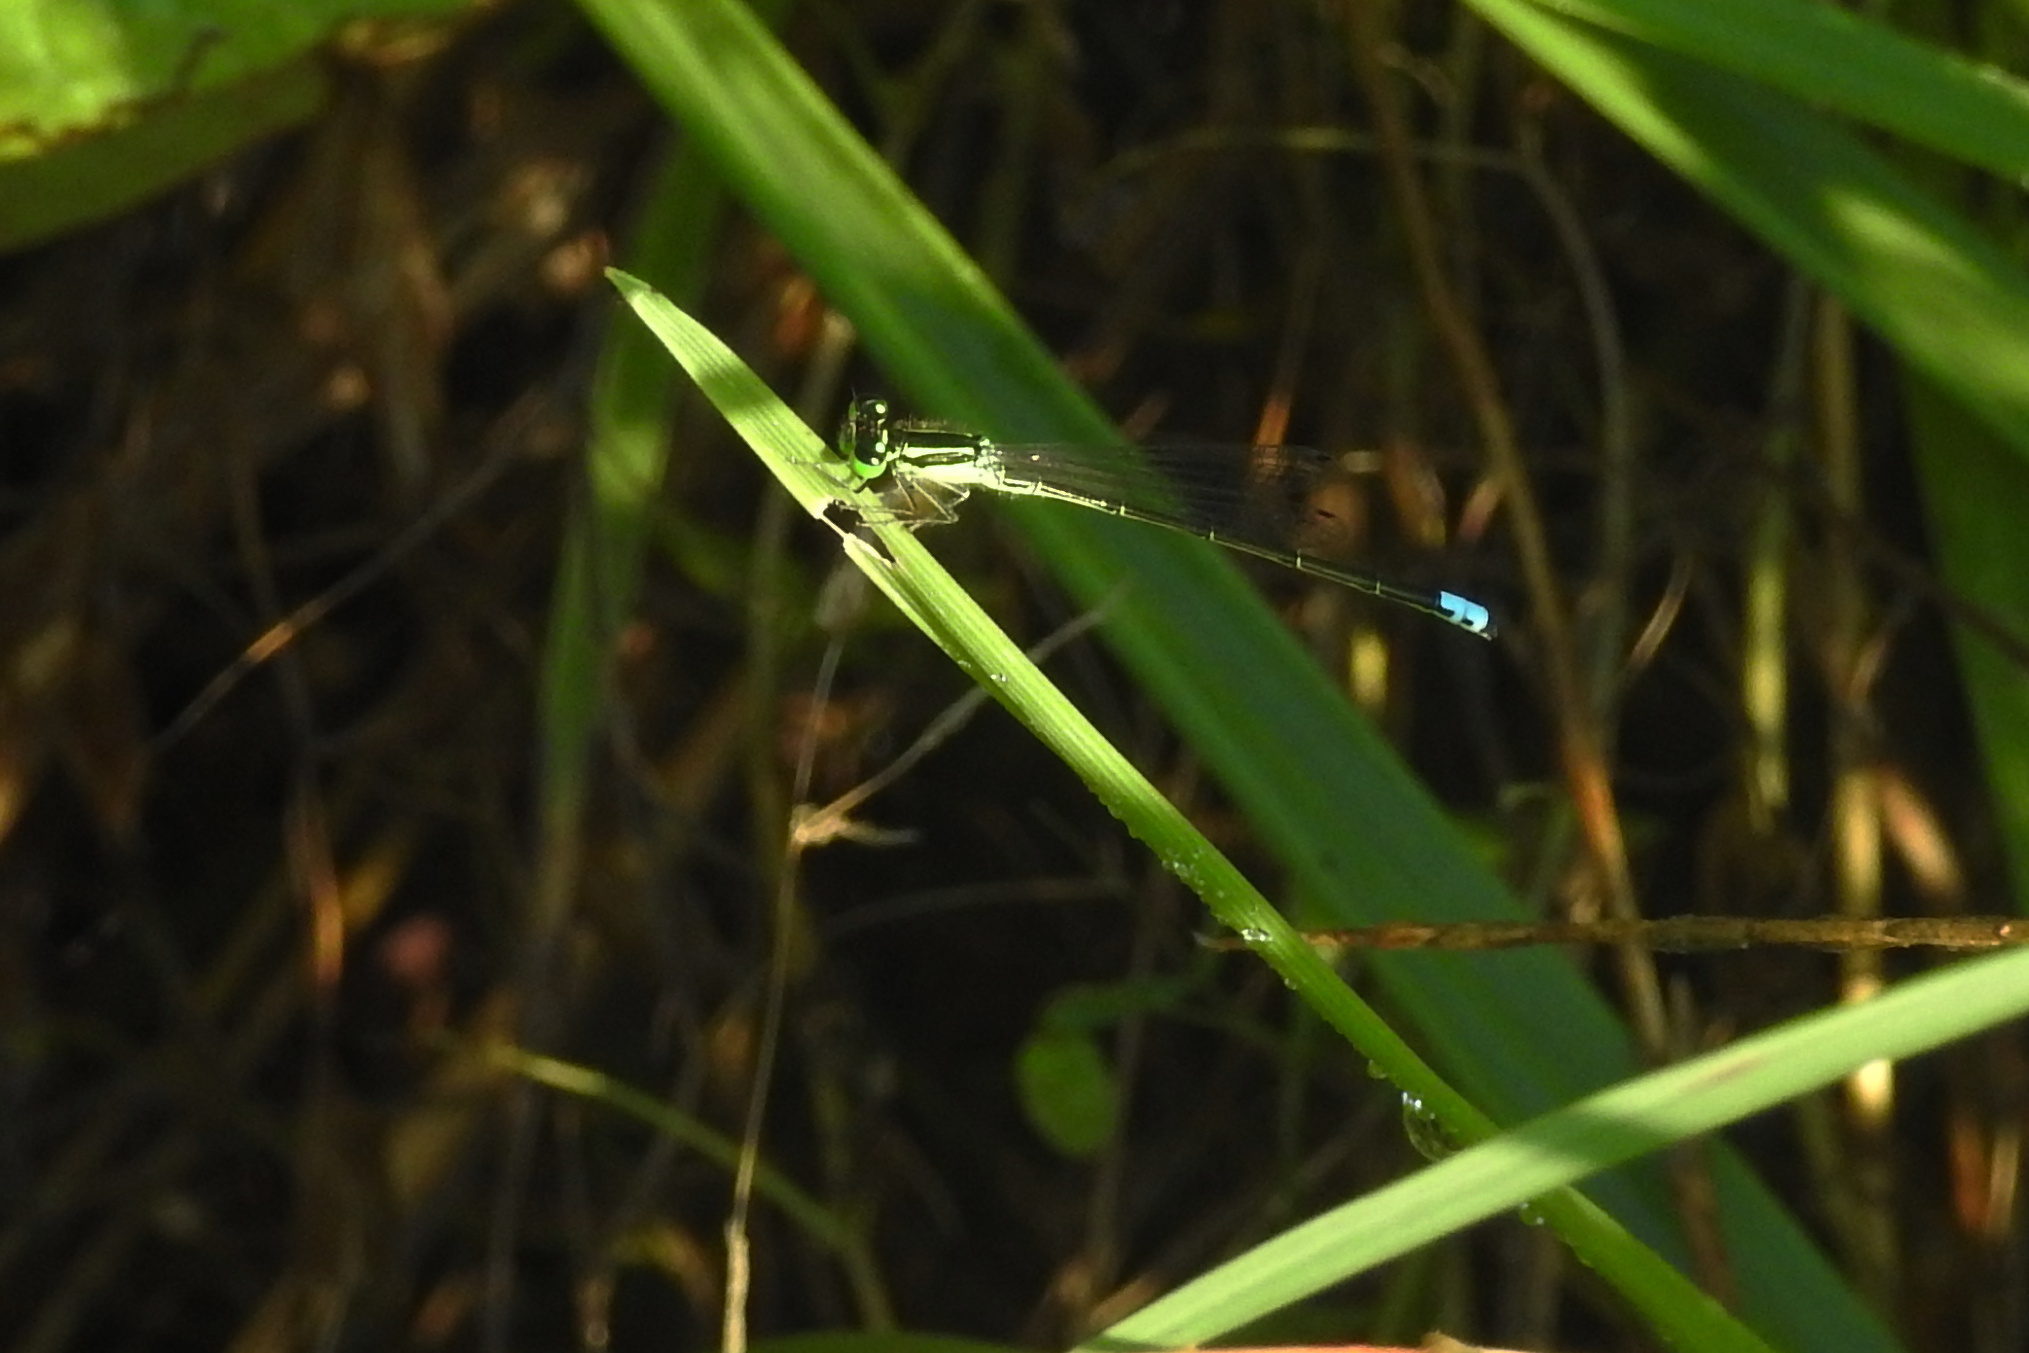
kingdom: Animalia
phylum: Arthropoda
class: Insecta
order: Odonata
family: Coenagrionidae
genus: Ischnura
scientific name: Ischnura verticalis
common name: Eastern forktail
